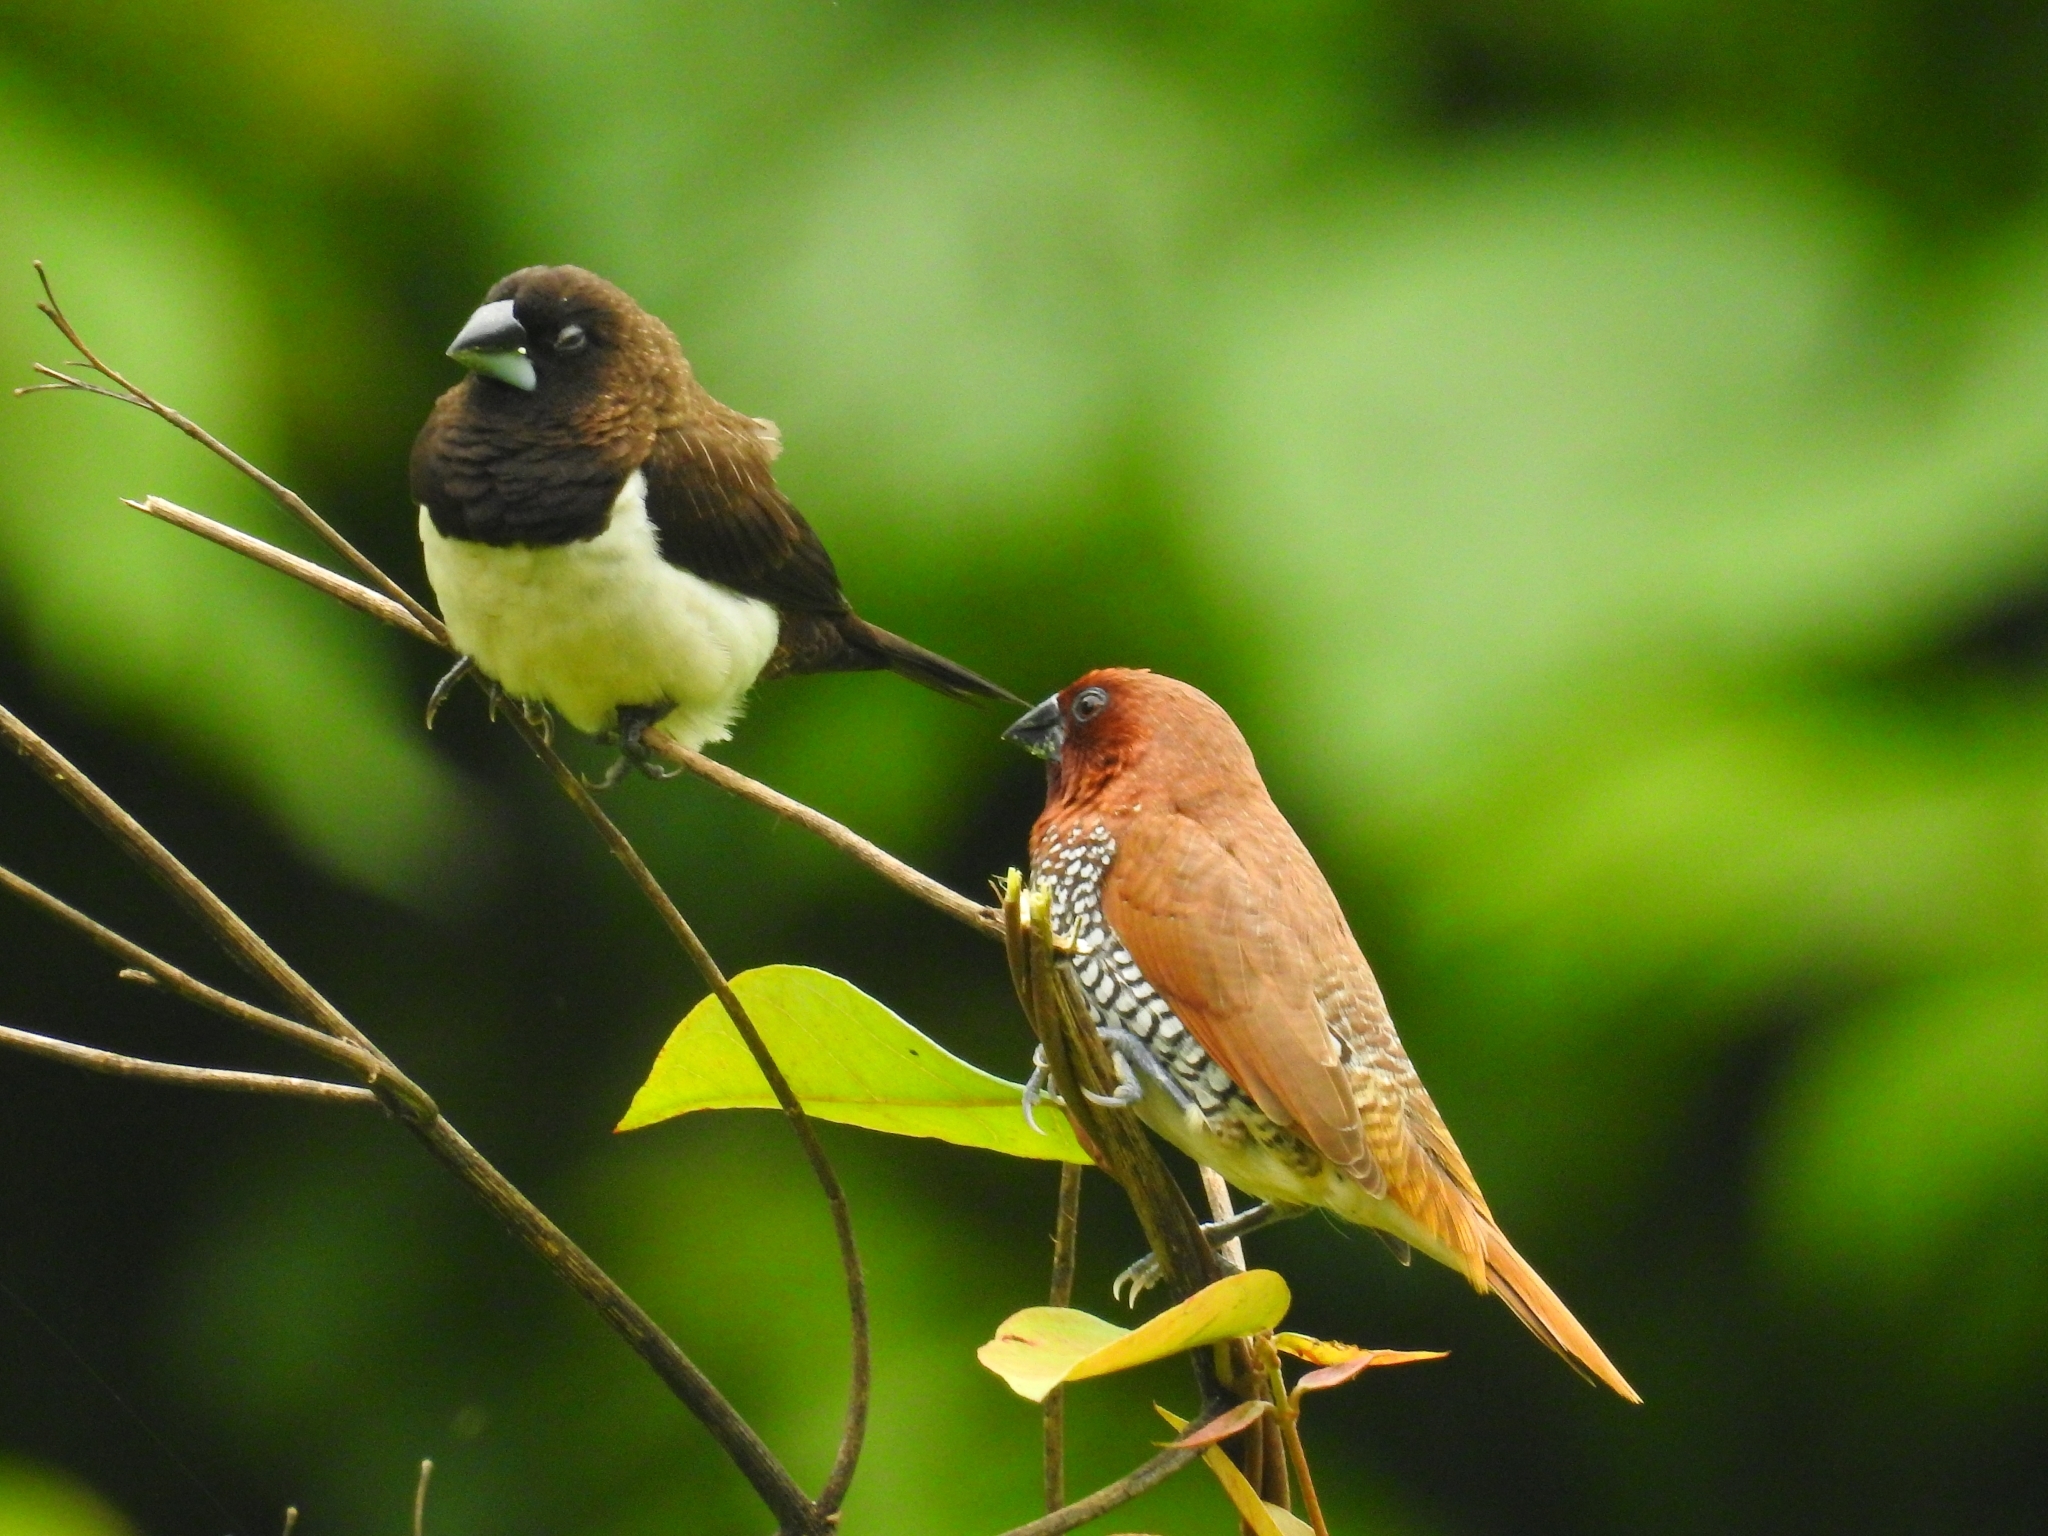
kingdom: Animalia
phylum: Chordata
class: Aves
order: Passeriformes
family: Estrildidae
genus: Lonchura
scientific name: Lonchura punctulata
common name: Scaly-breasted munia
